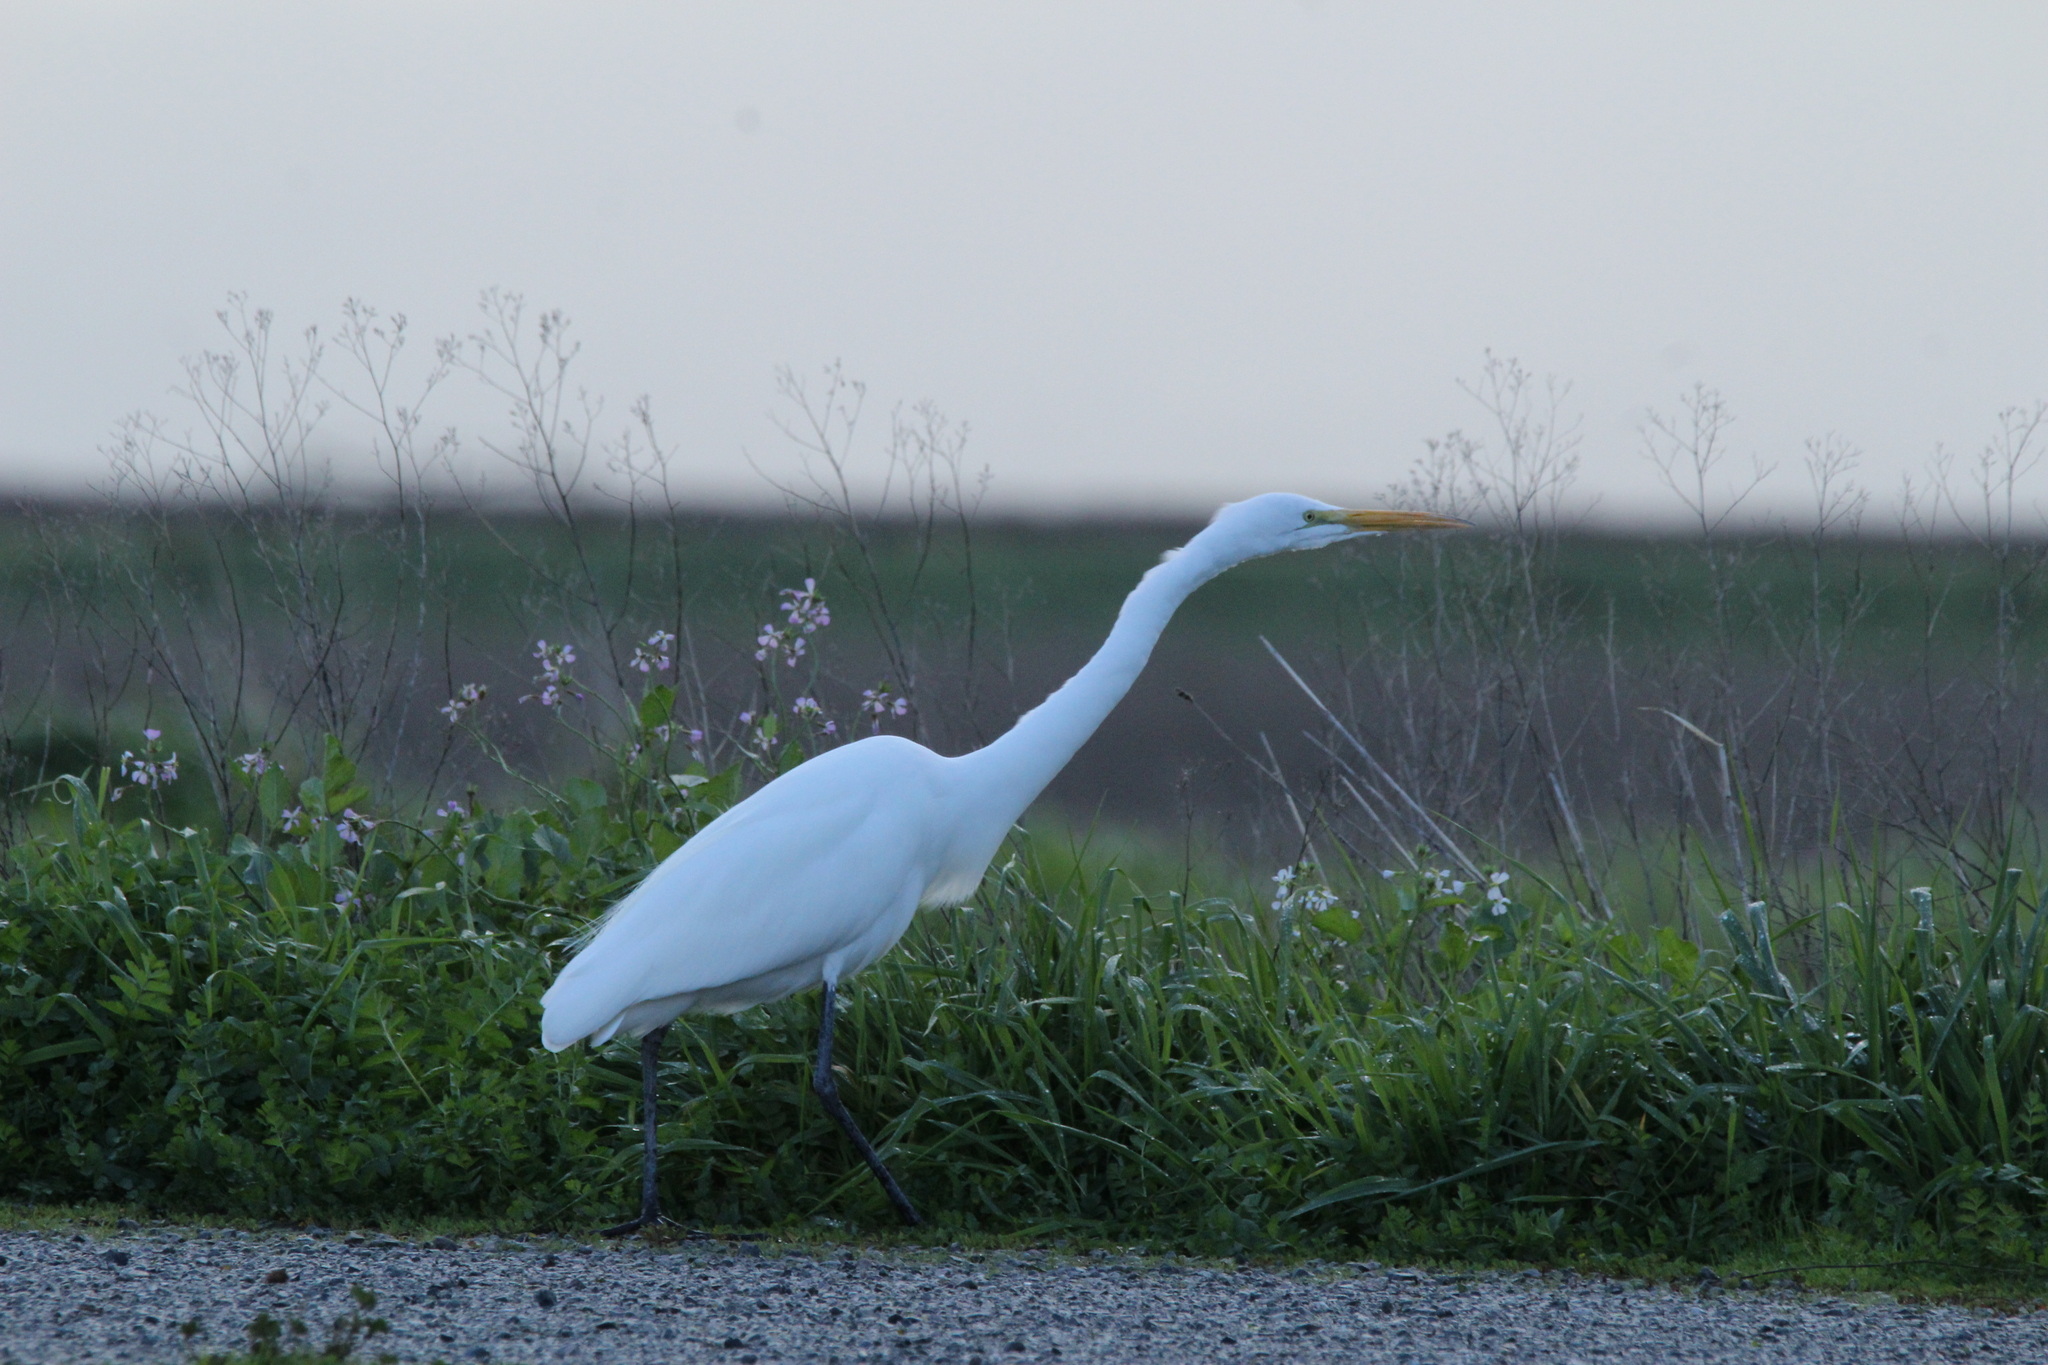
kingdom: Animalia
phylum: Chordata
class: Aves
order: Pelecaniformes
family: Ardeidae
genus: Ardea
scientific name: Ardea alba
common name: Great egret
